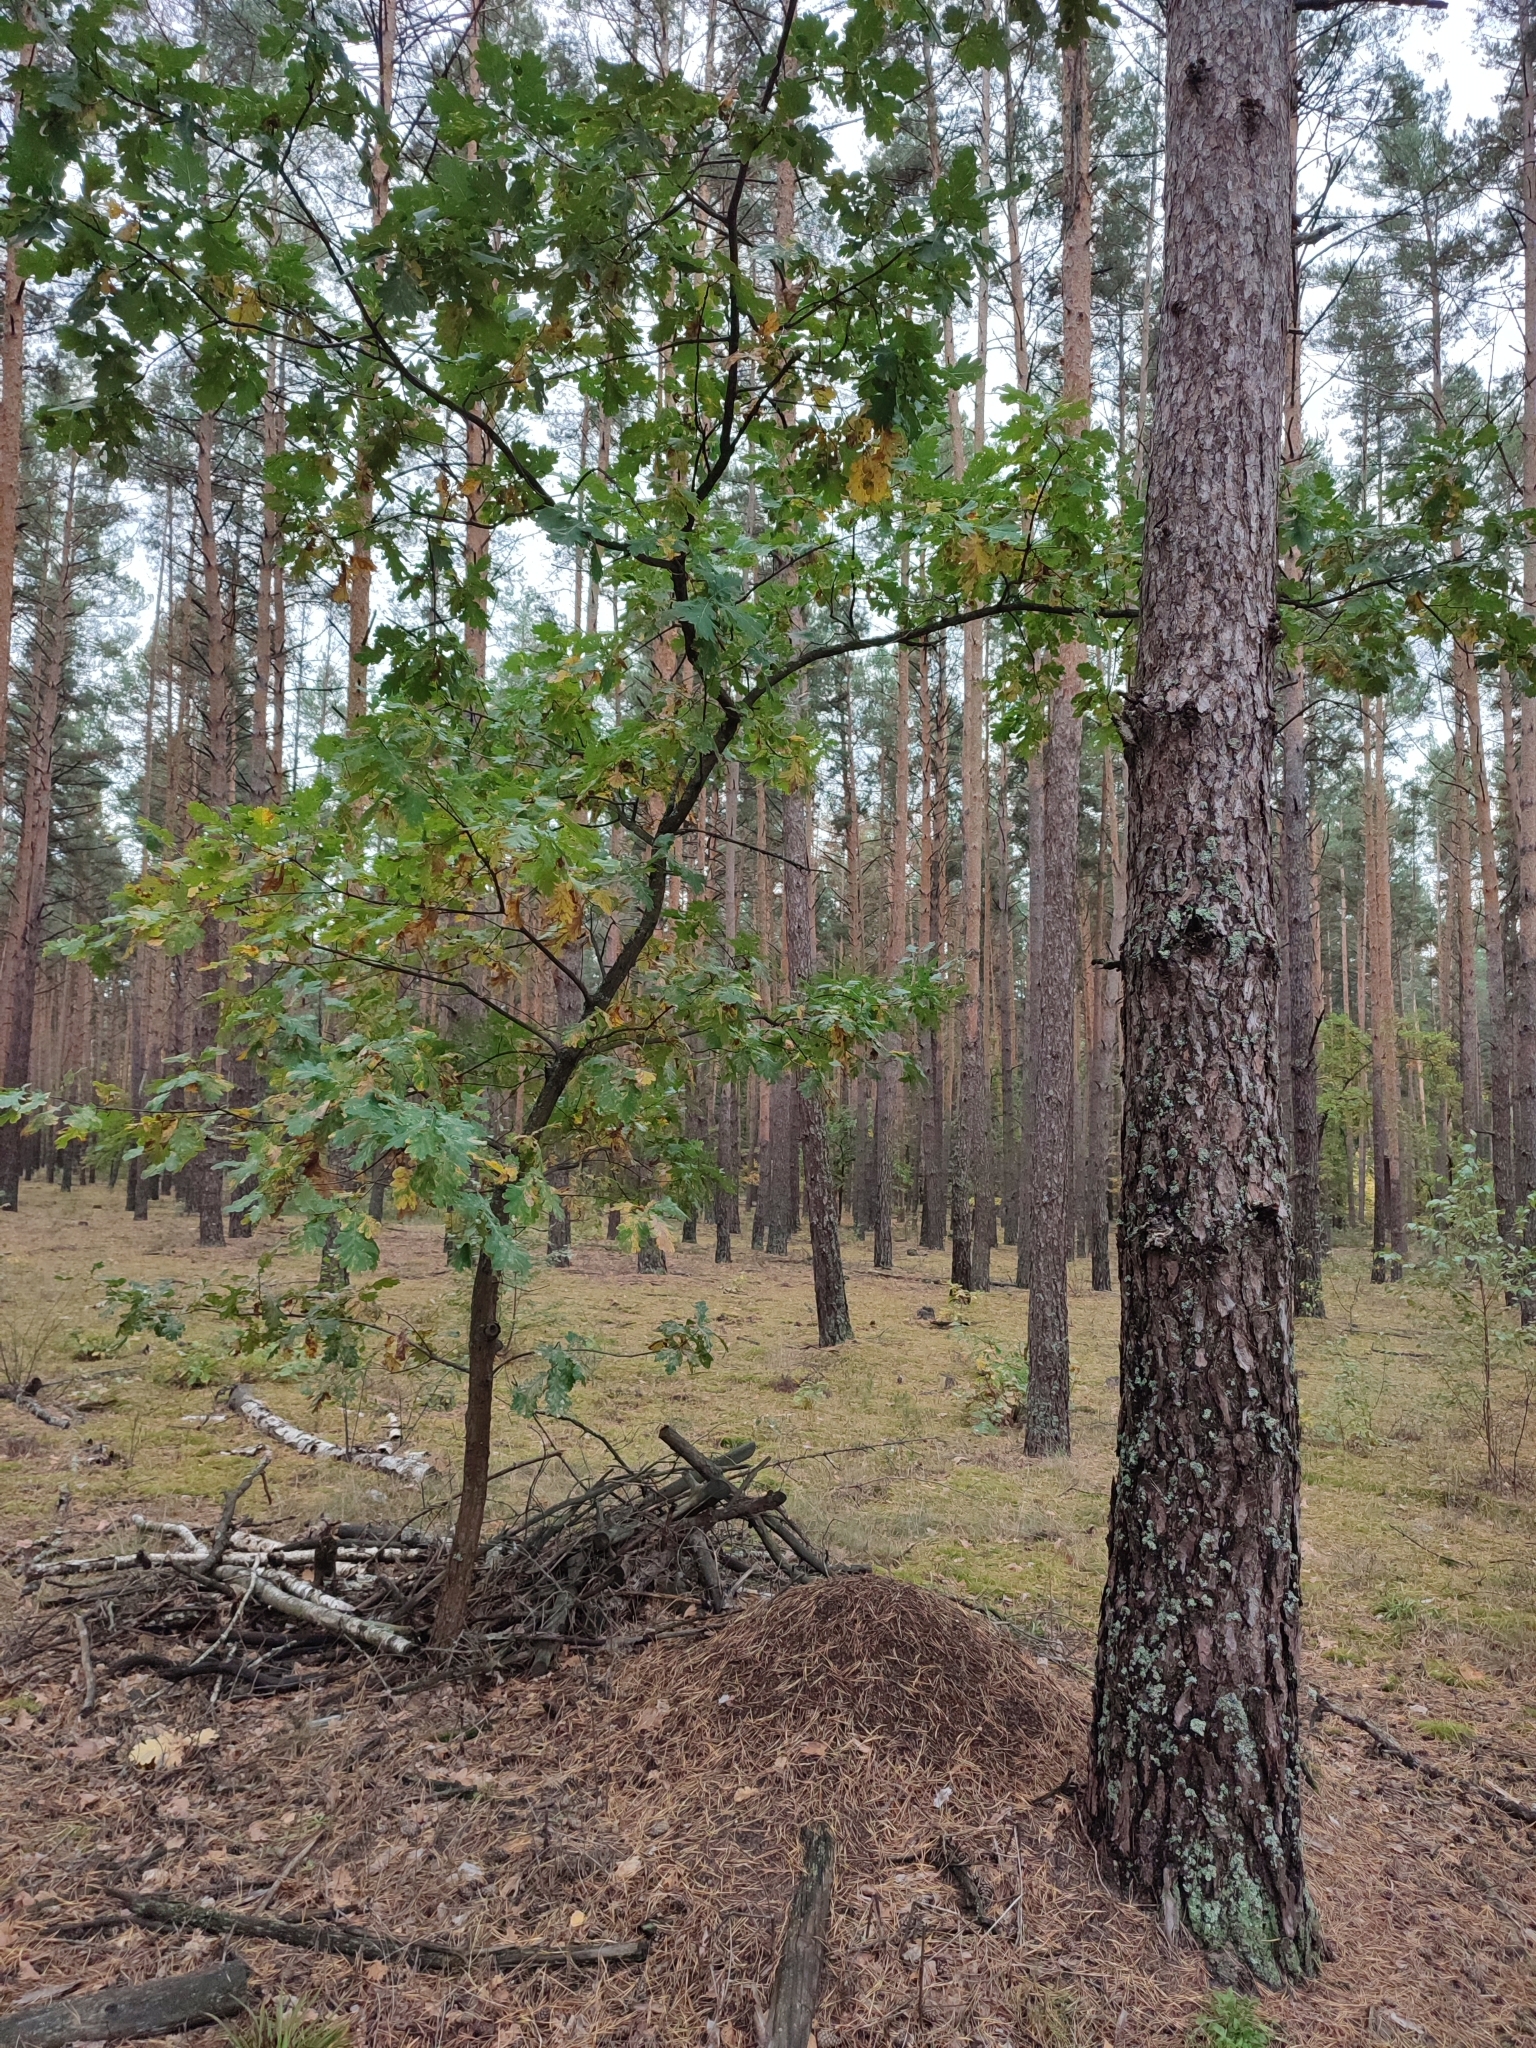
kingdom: Plantae
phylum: Tracheophyta
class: Magnoliopsida
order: Fagales
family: Fagaceae
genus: Quercus
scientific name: Quercus robur
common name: Pedunculate oak
